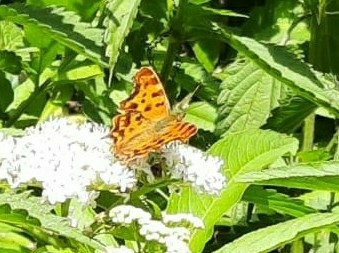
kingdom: Animalia
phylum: Arthropoda
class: Insecta
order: Lepidoptera
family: Nymphalidae
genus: Polygonia
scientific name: Polygonia c-album
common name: Comma
